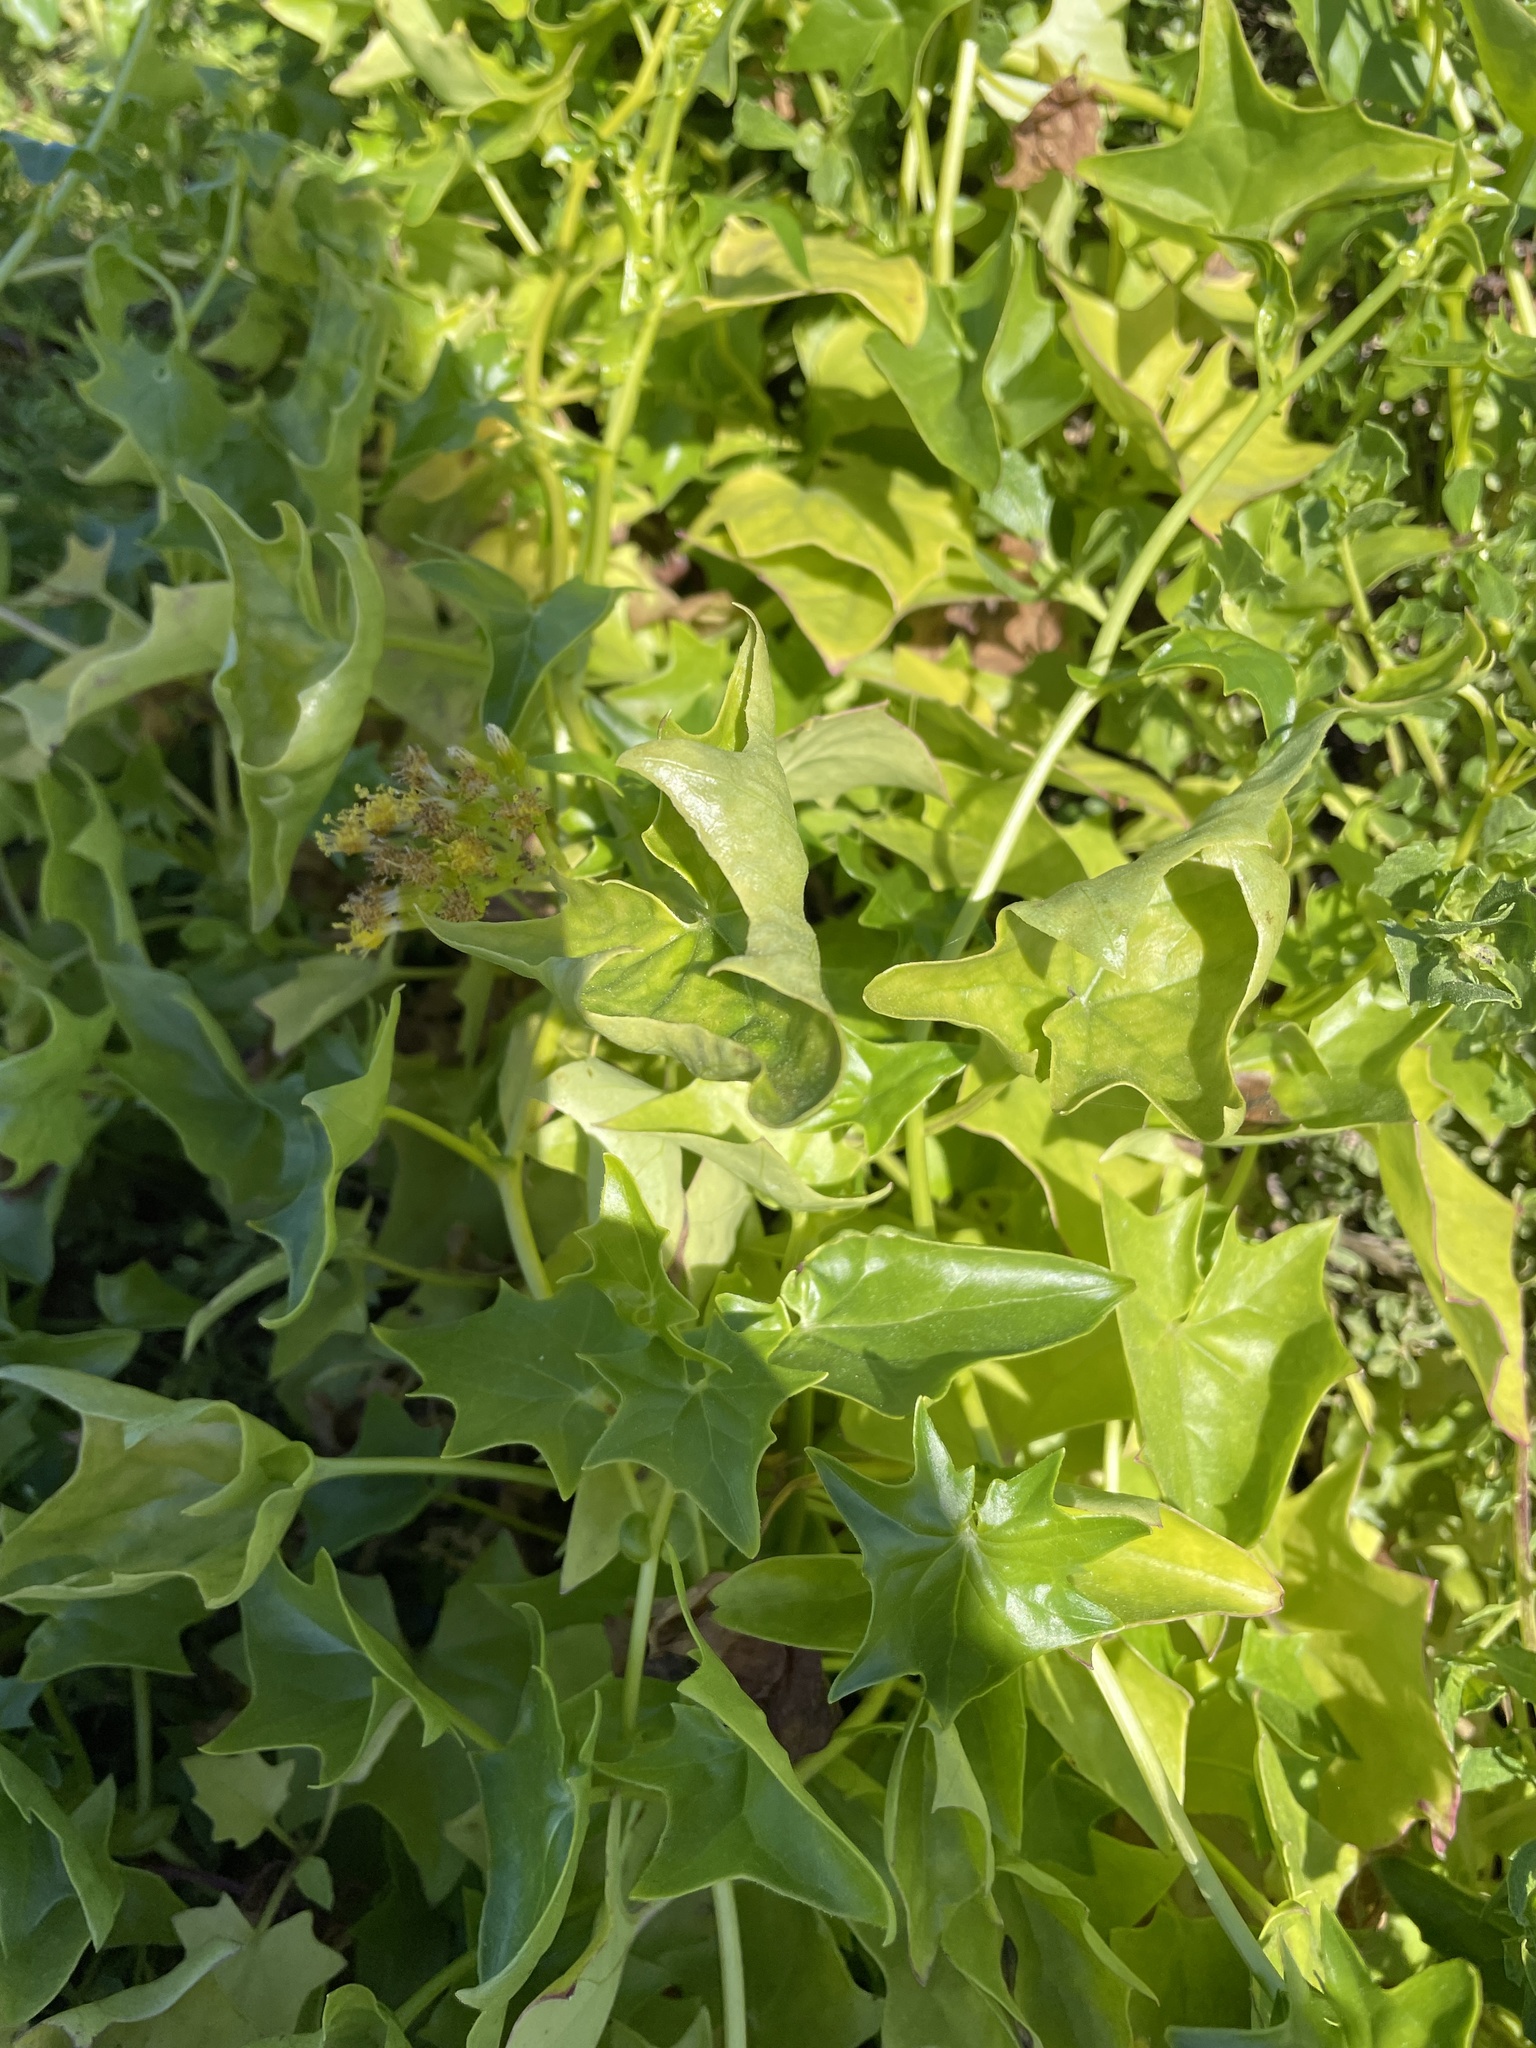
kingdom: Plantae
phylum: Tracheophyta
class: Magnoliopsida
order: Asterales
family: Asteraceae
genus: Delairea
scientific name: Delairea odorata
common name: Cape-ivy
